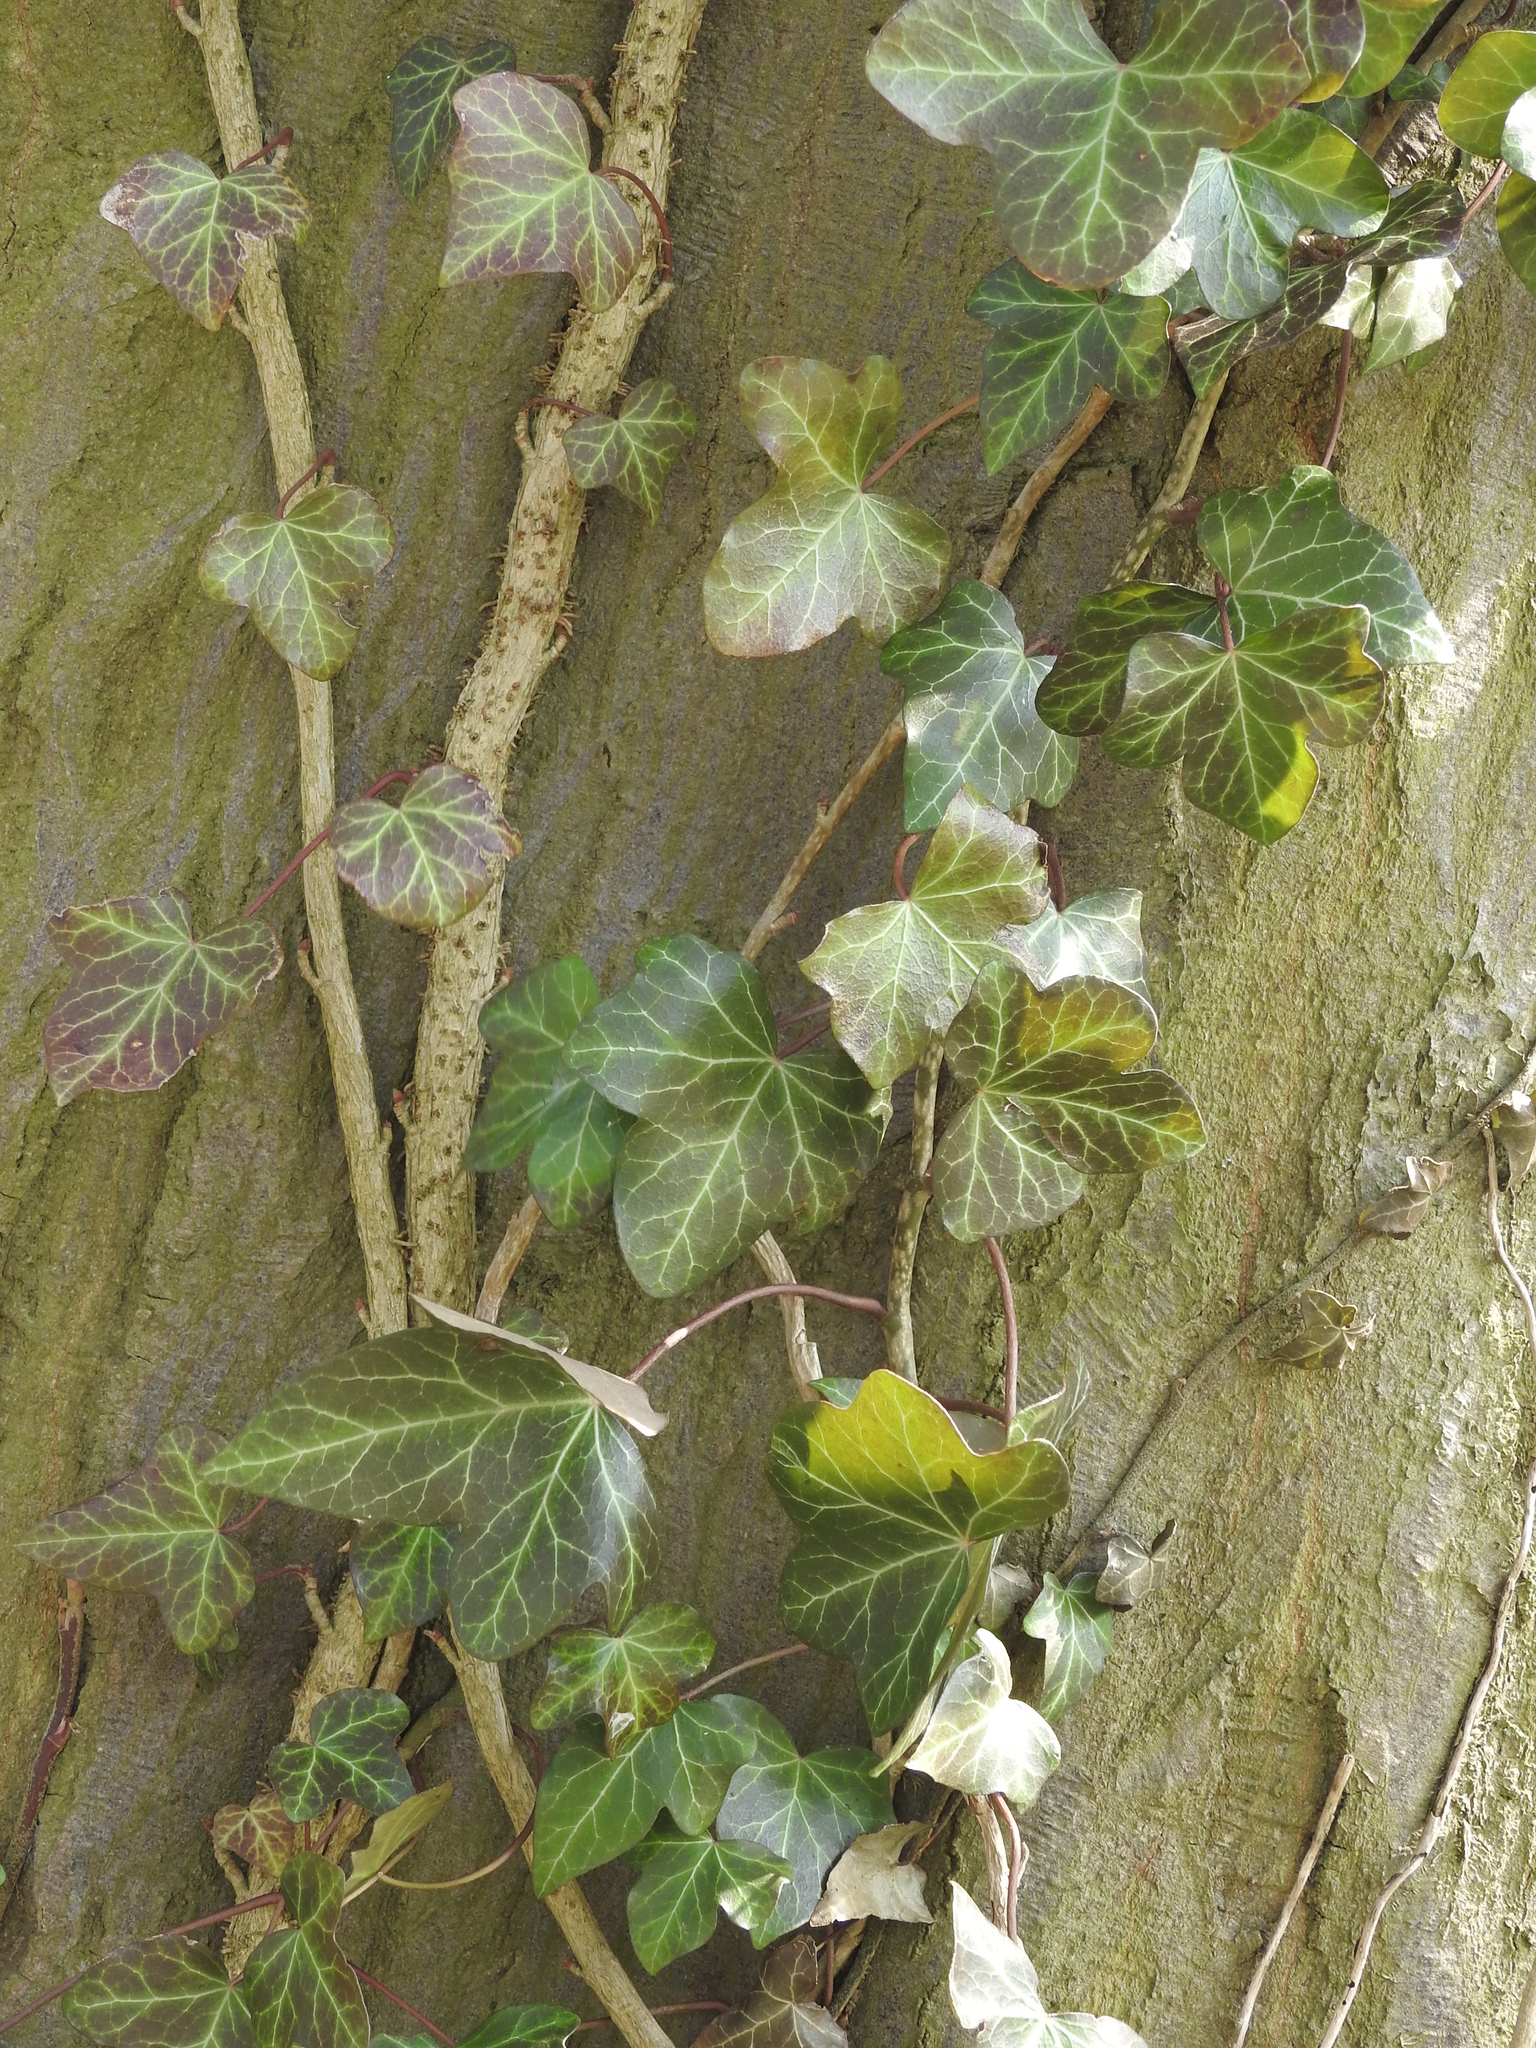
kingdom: Plantae
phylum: Tracheophyta
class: Magnoliopsida
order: Apiales
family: Araliaceae
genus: Hedera
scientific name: Hedera helix
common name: Ivy
